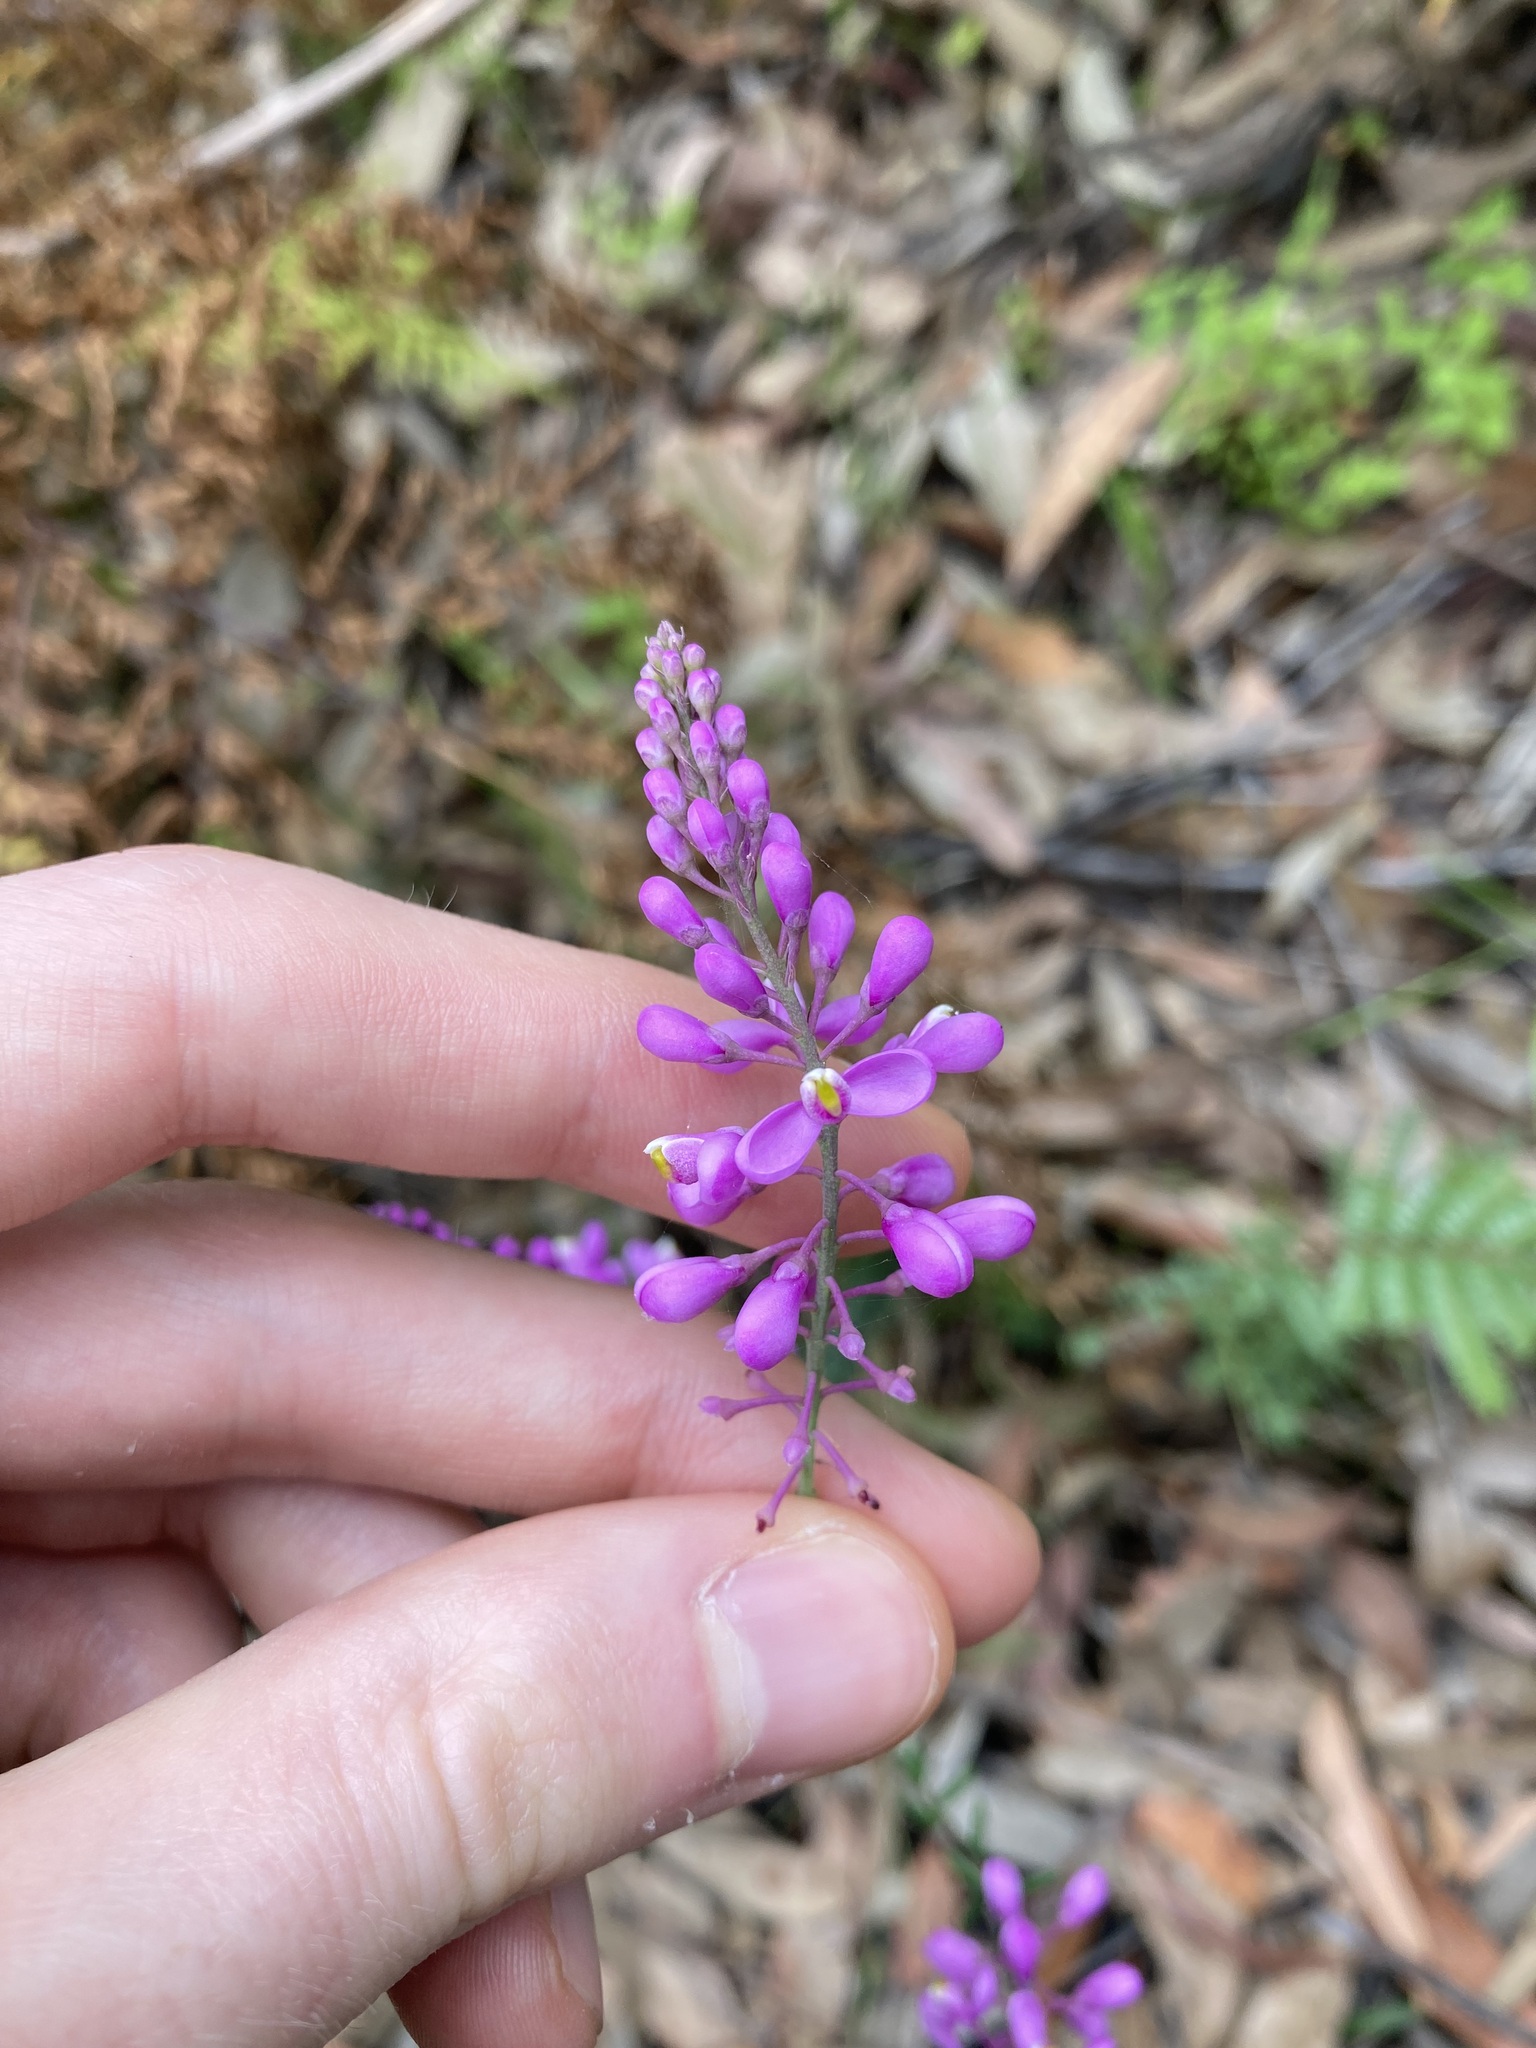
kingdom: Plantae
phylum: Tracheophyta
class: Magnoliopsida
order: Fabales
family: Polygalaceae
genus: Comesperma
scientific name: Comesperma ericinum
